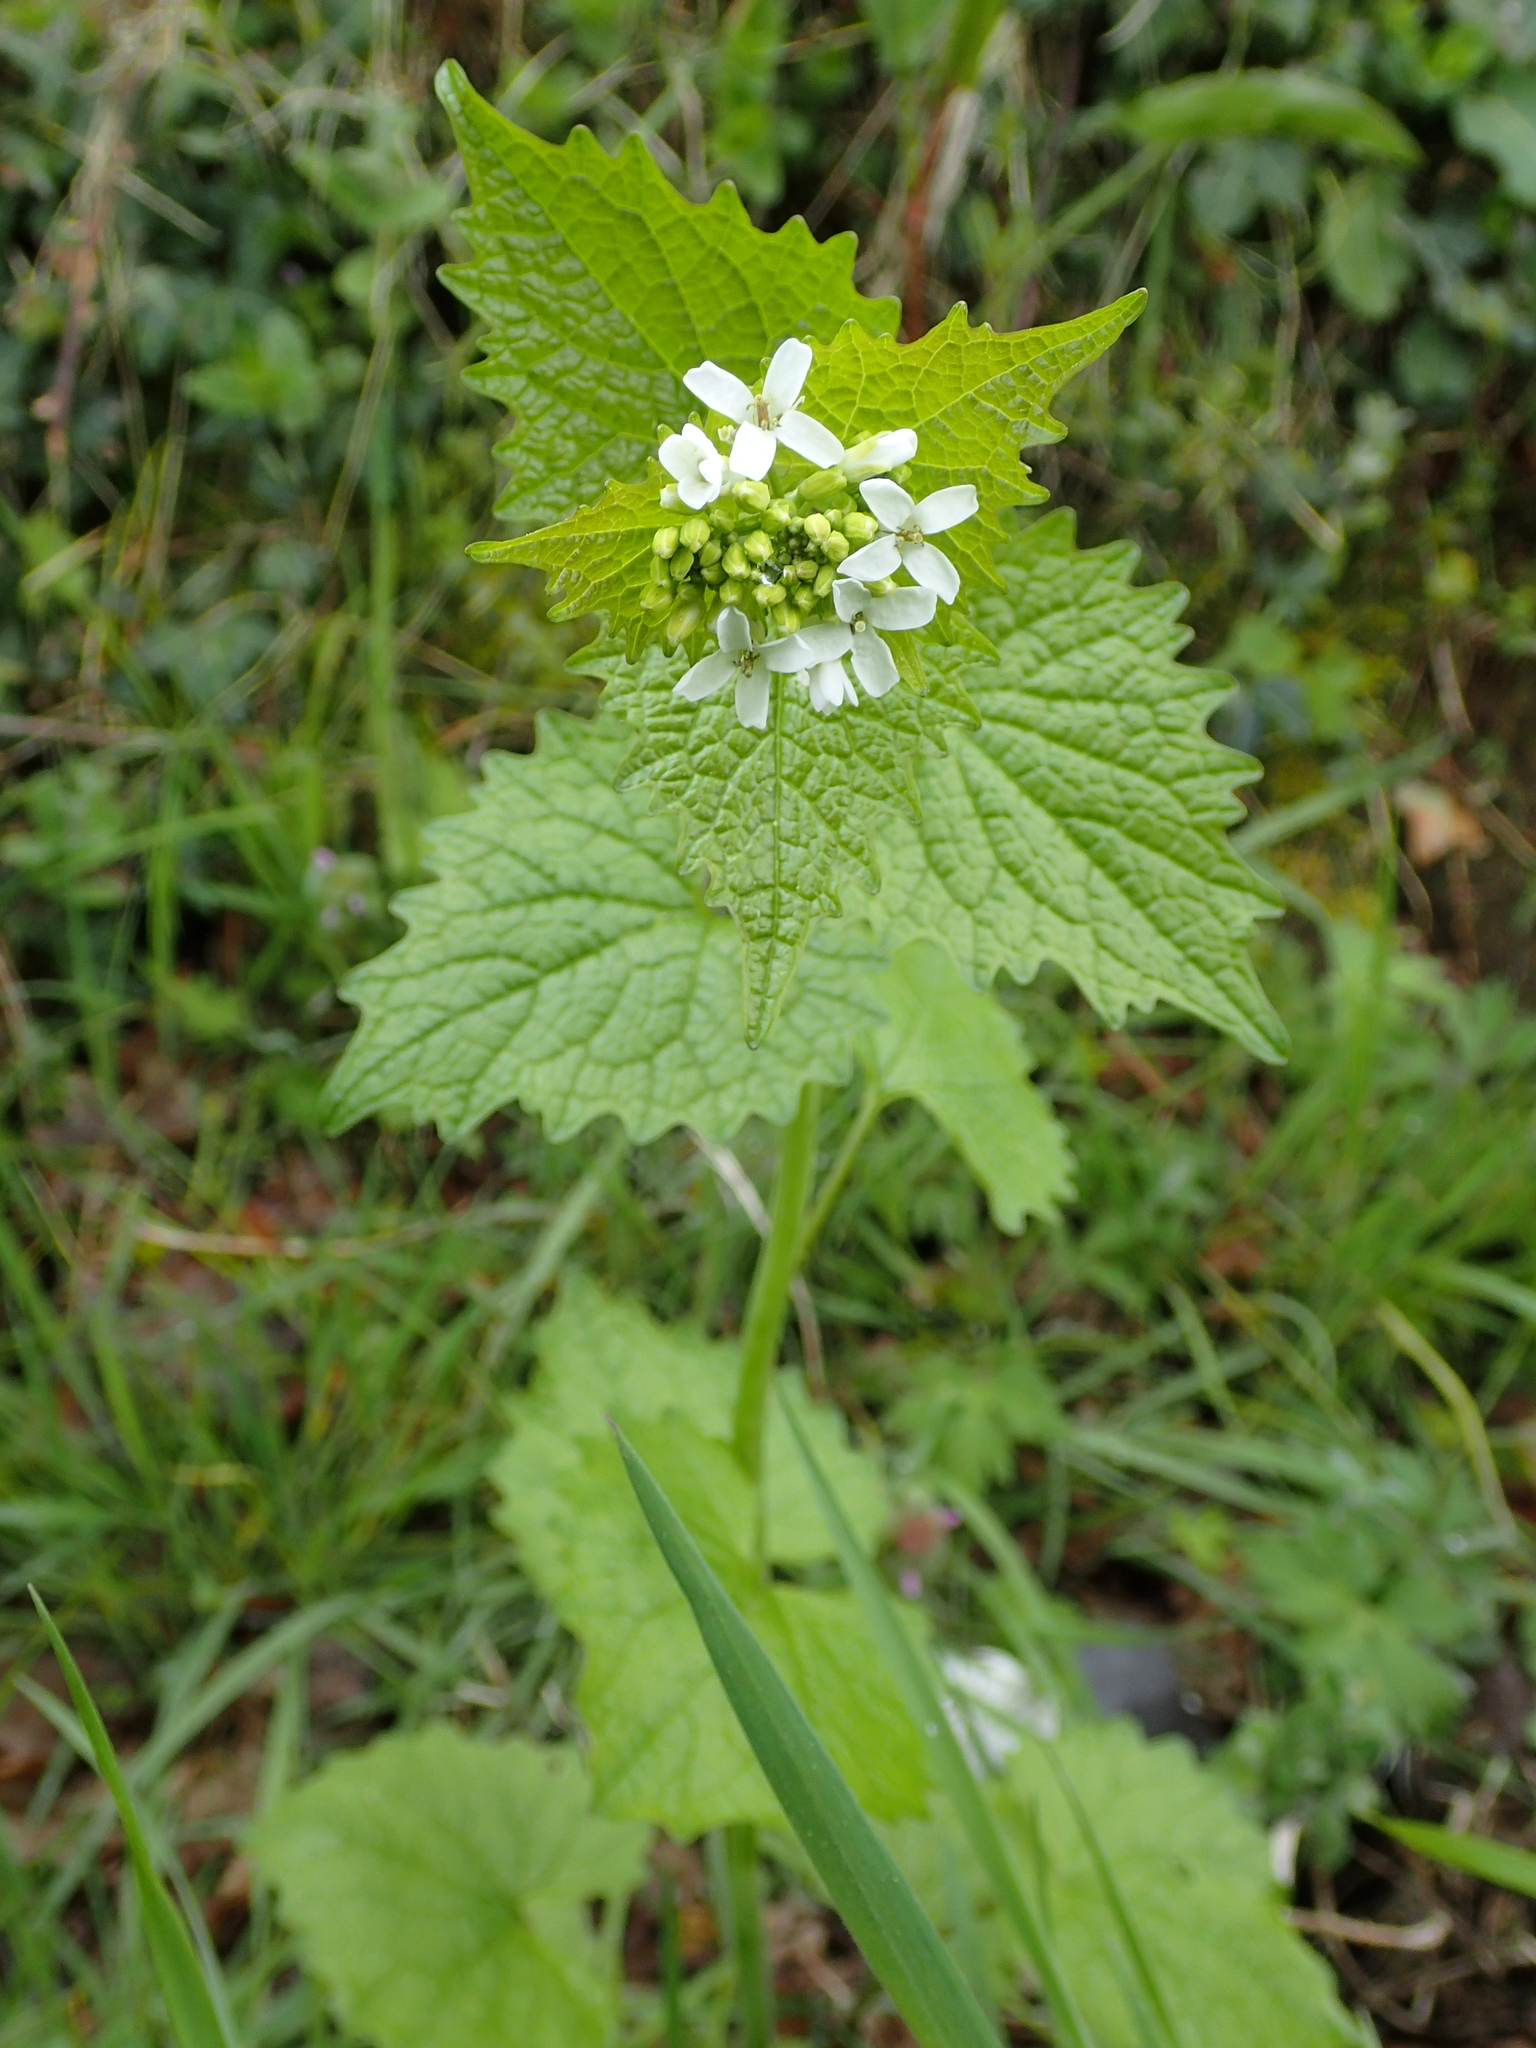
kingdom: Plantae
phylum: Tracheophyta
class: Magnoliopsida
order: Brassicales
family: Brassicaceae
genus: Alliaria
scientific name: Alliaria petiolata
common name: Garlic mustard
